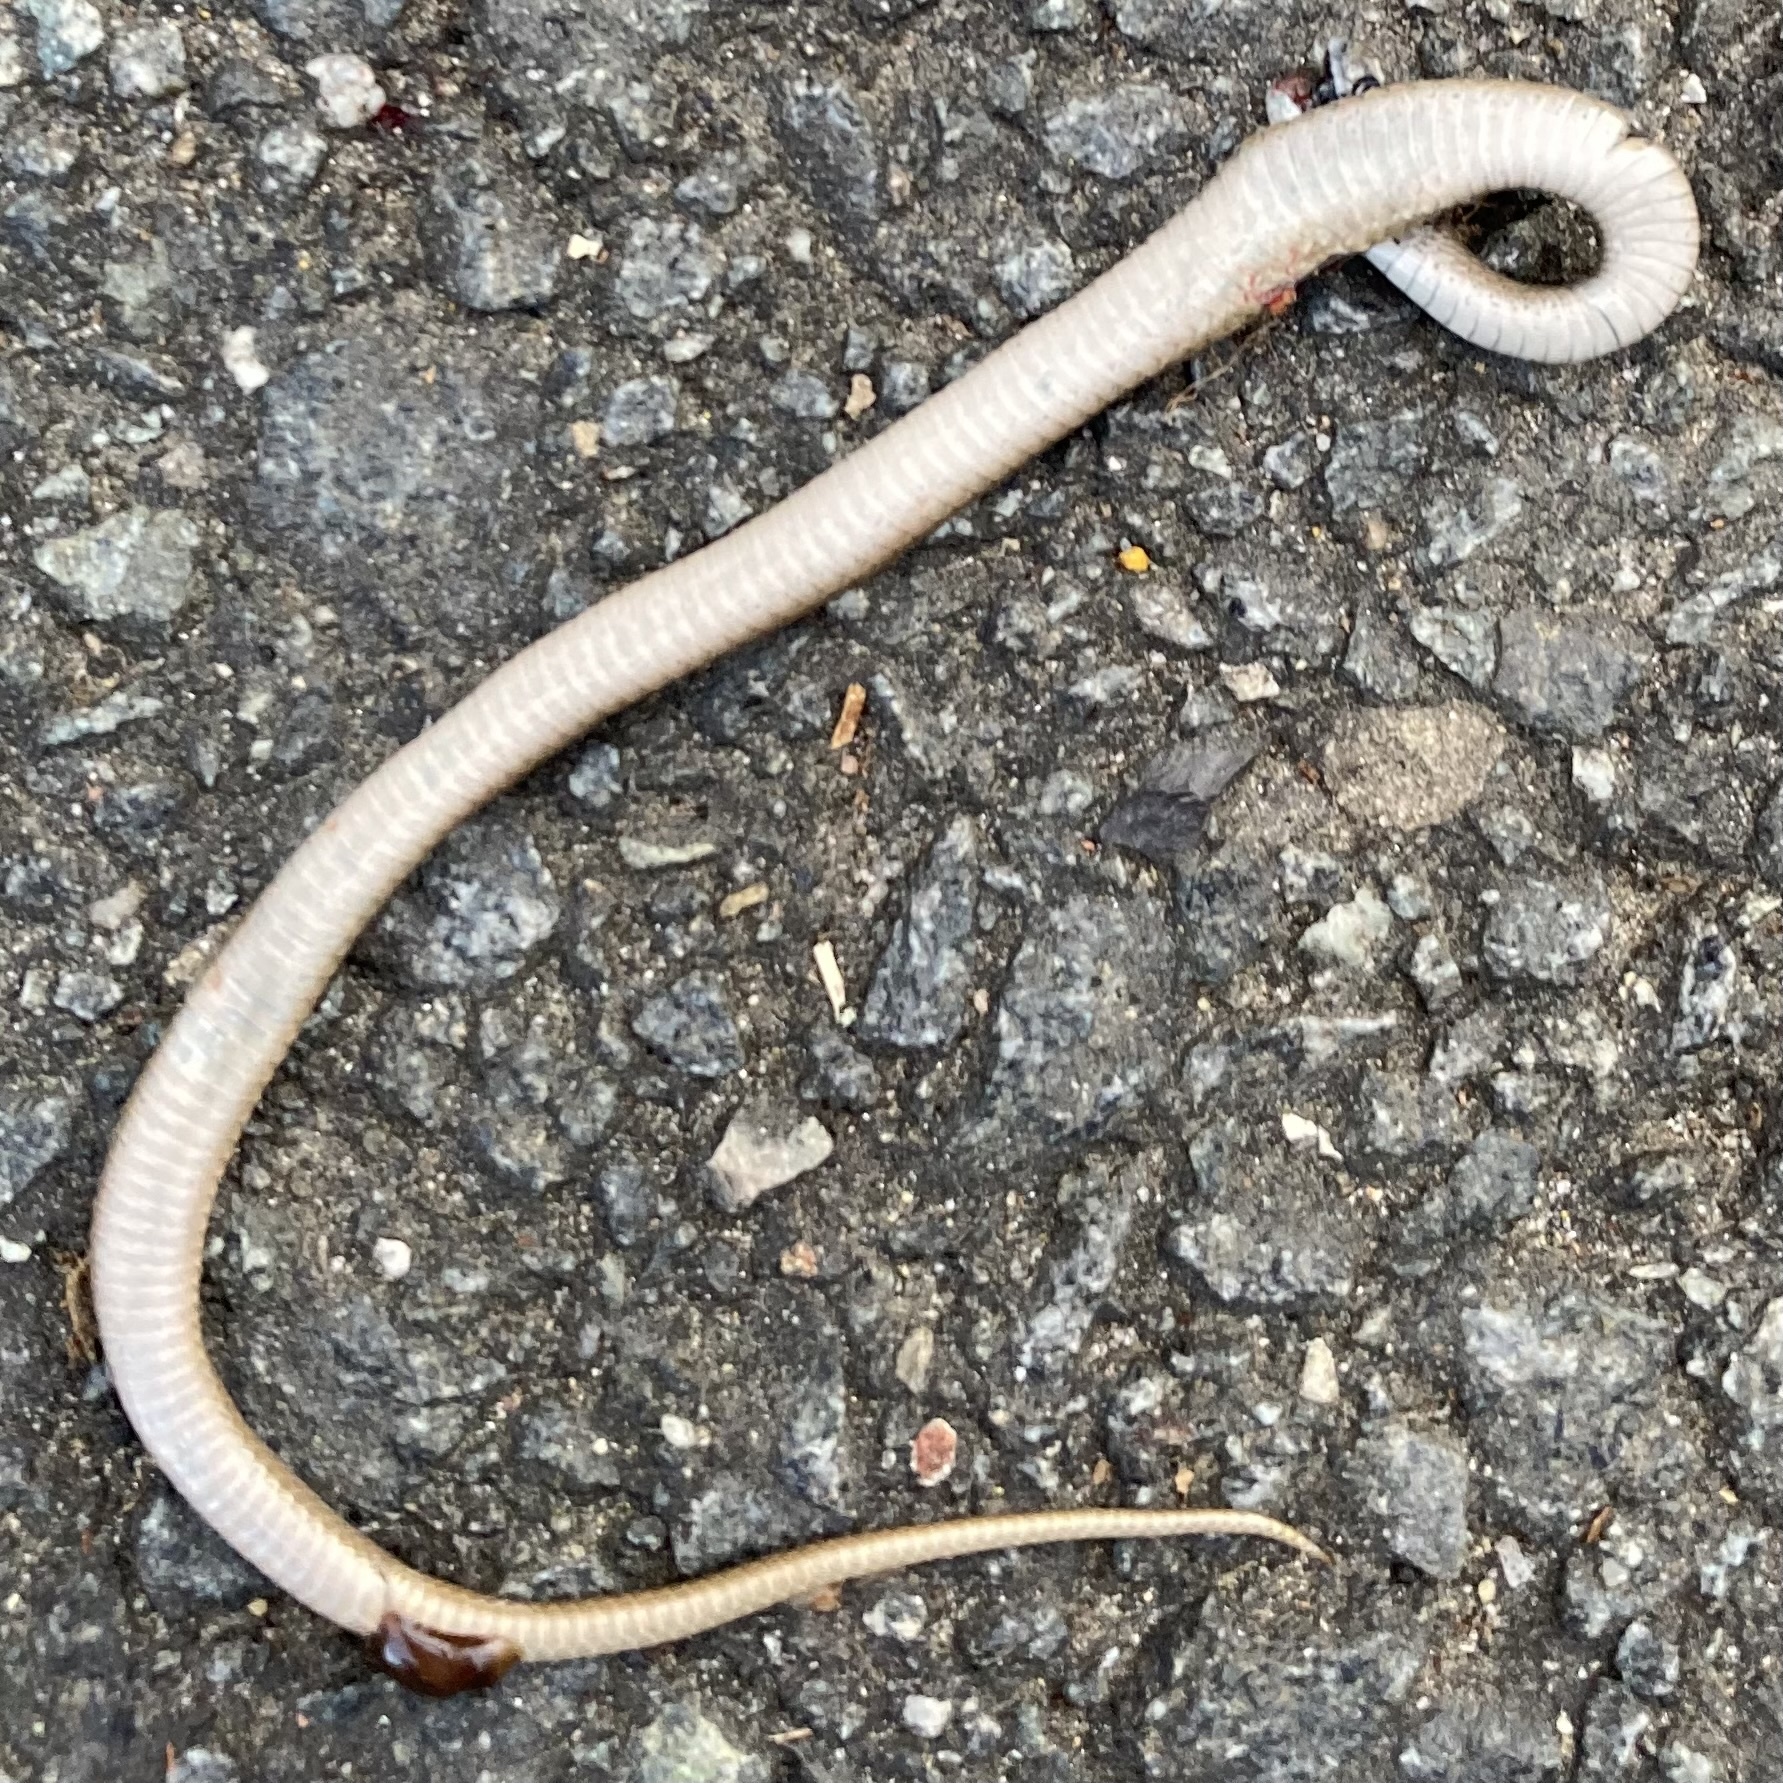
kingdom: Animalia
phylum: Chordata
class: Squamata
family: Colubridae
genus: Storeria
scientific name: Storeria dekayi
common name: (dekay’s) brown snake
